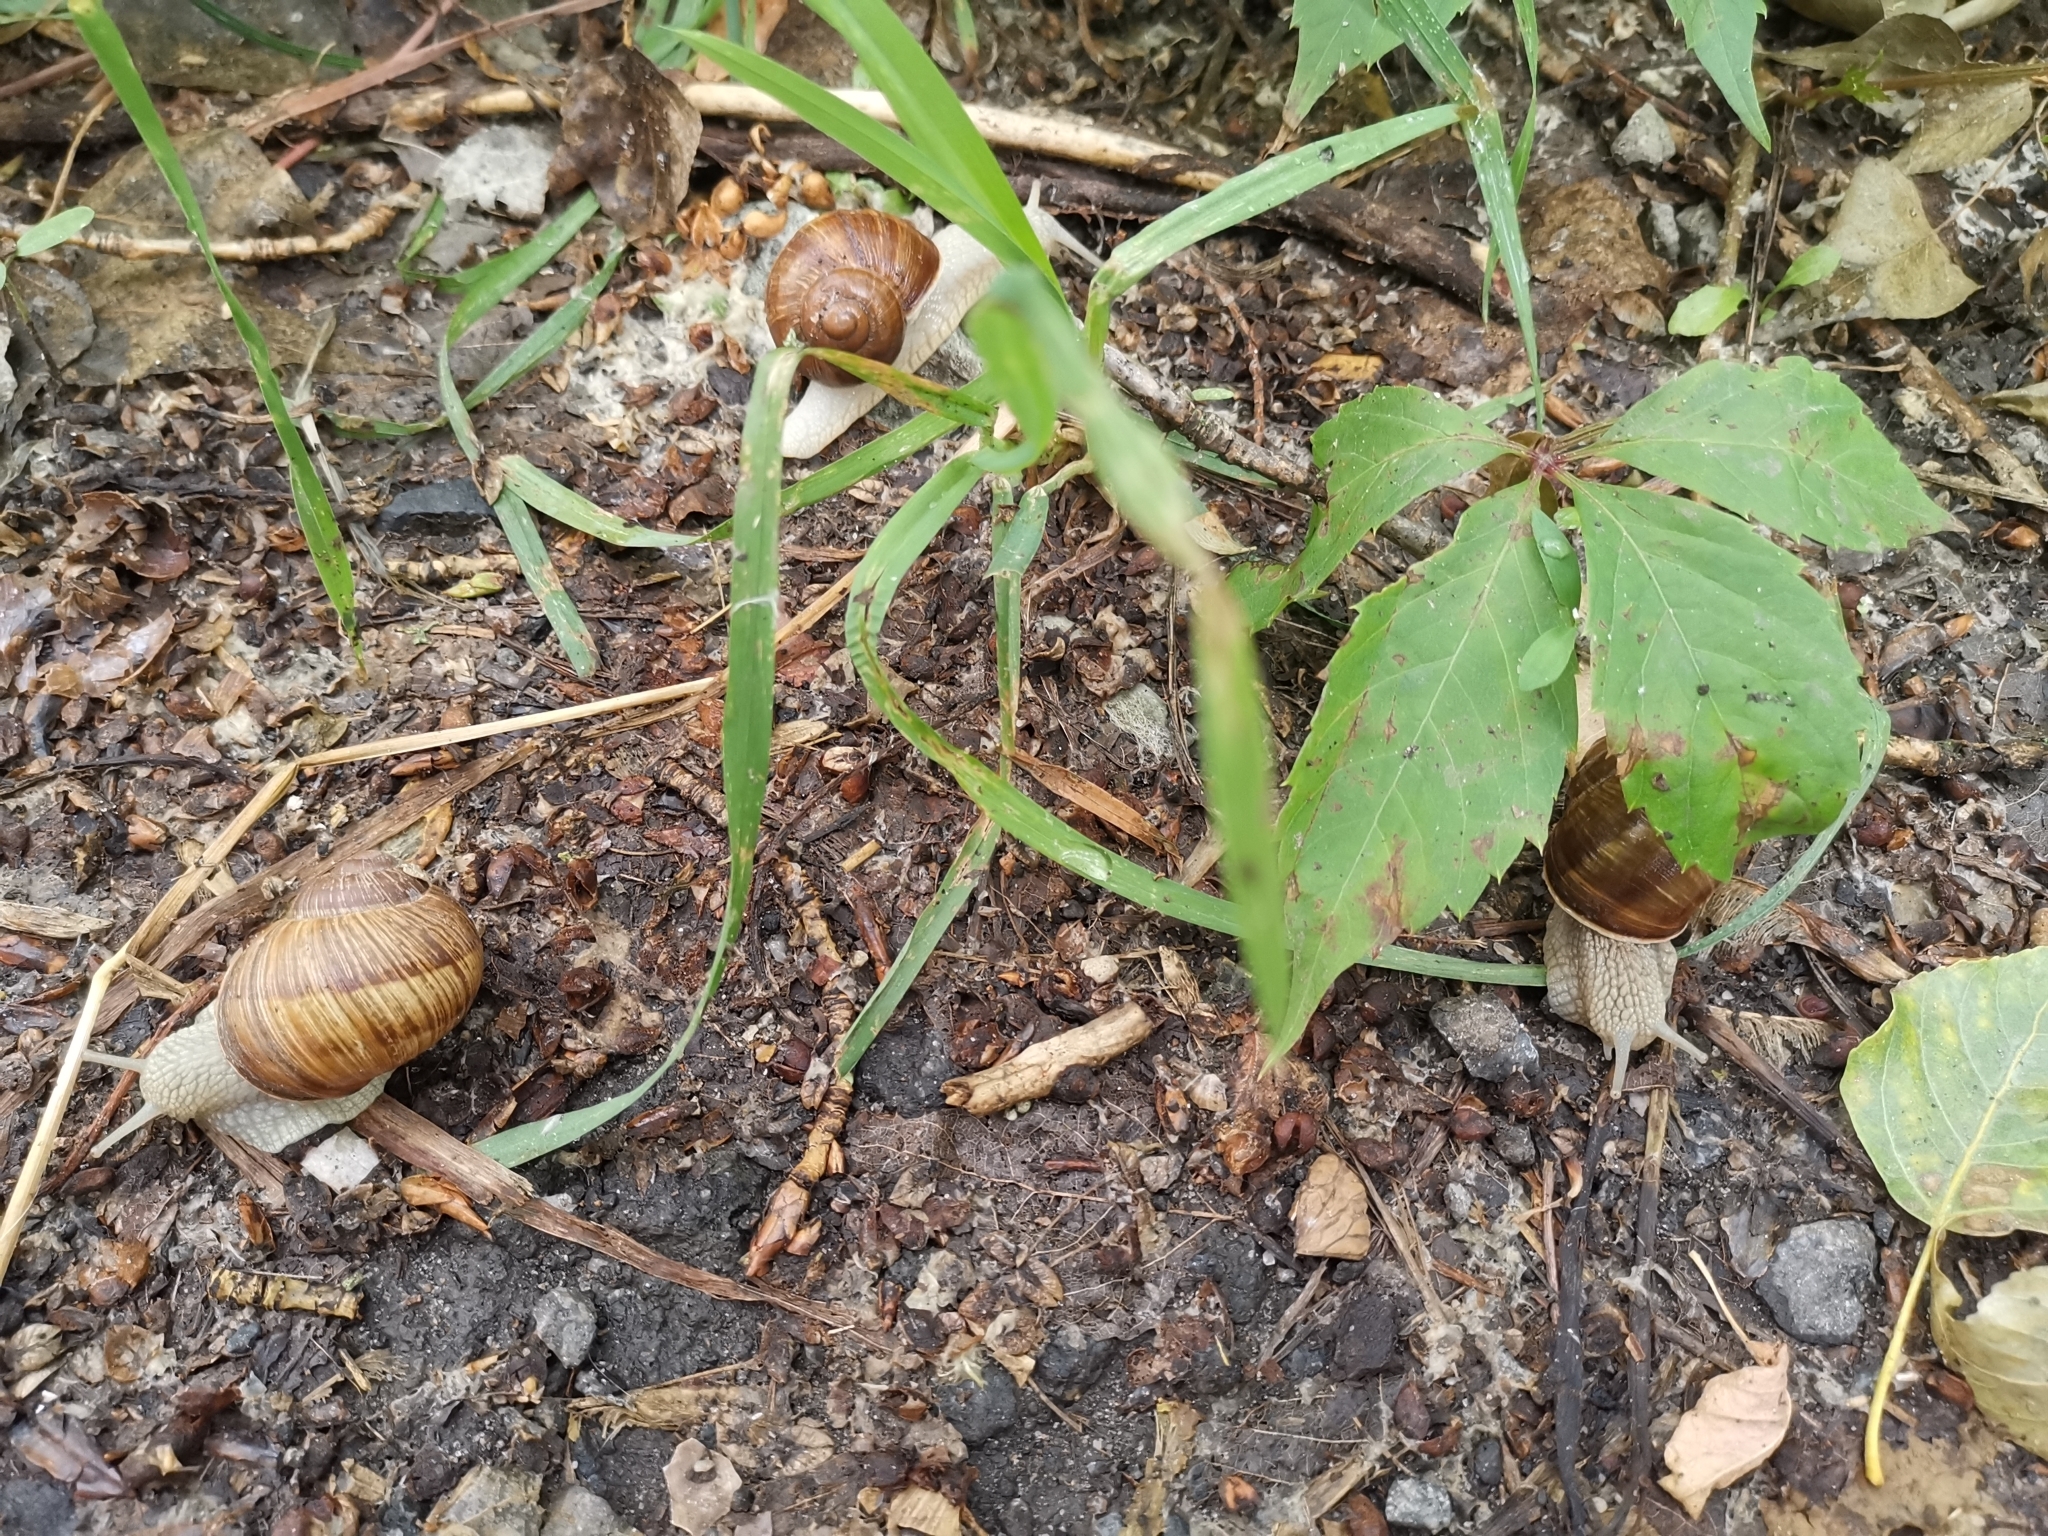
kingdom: Animalia
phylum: Mollusca
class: Gastropoda
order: Stylommatophora
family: Helicidae
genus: Helix
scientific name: Helix pomatia
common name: Roman snail
